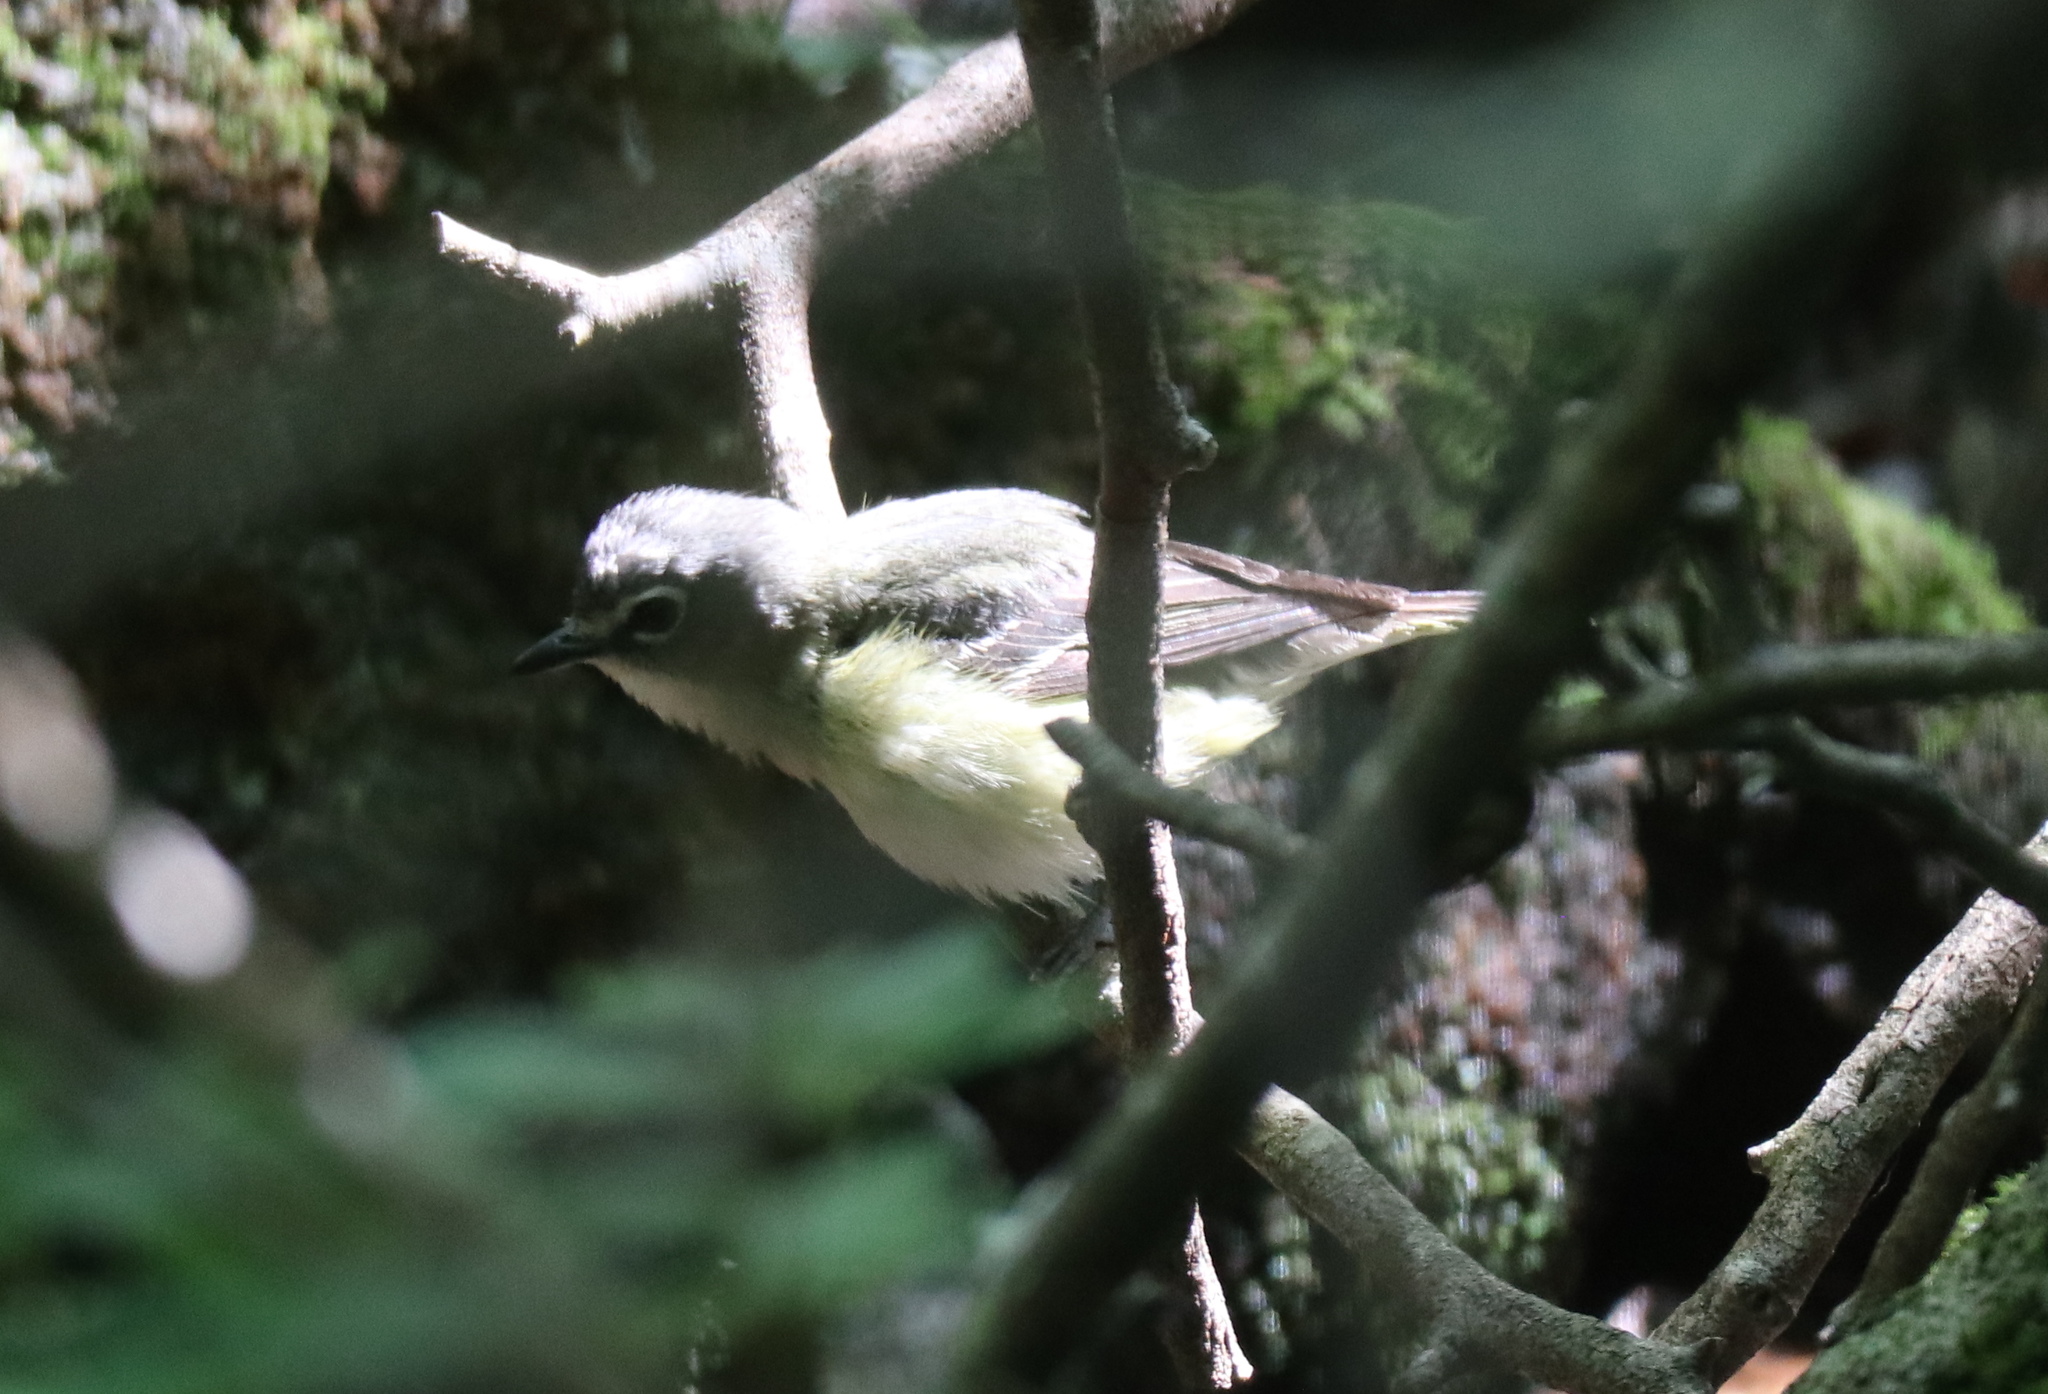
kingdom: Animalia
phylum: Chordata
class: Aves
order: Passeriformes
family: Vireonidae
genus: Vireo
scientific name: Vireo solitarius
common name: Blue-headed vireo
